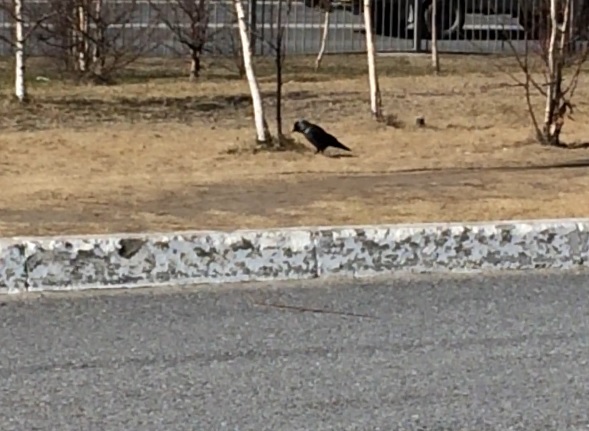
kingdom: Animalia
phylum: Chordata
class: Aves
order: Passeriformes
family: Corvidae
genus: Coloeus
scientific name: Coloeus monedula
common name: Western jackdaw
